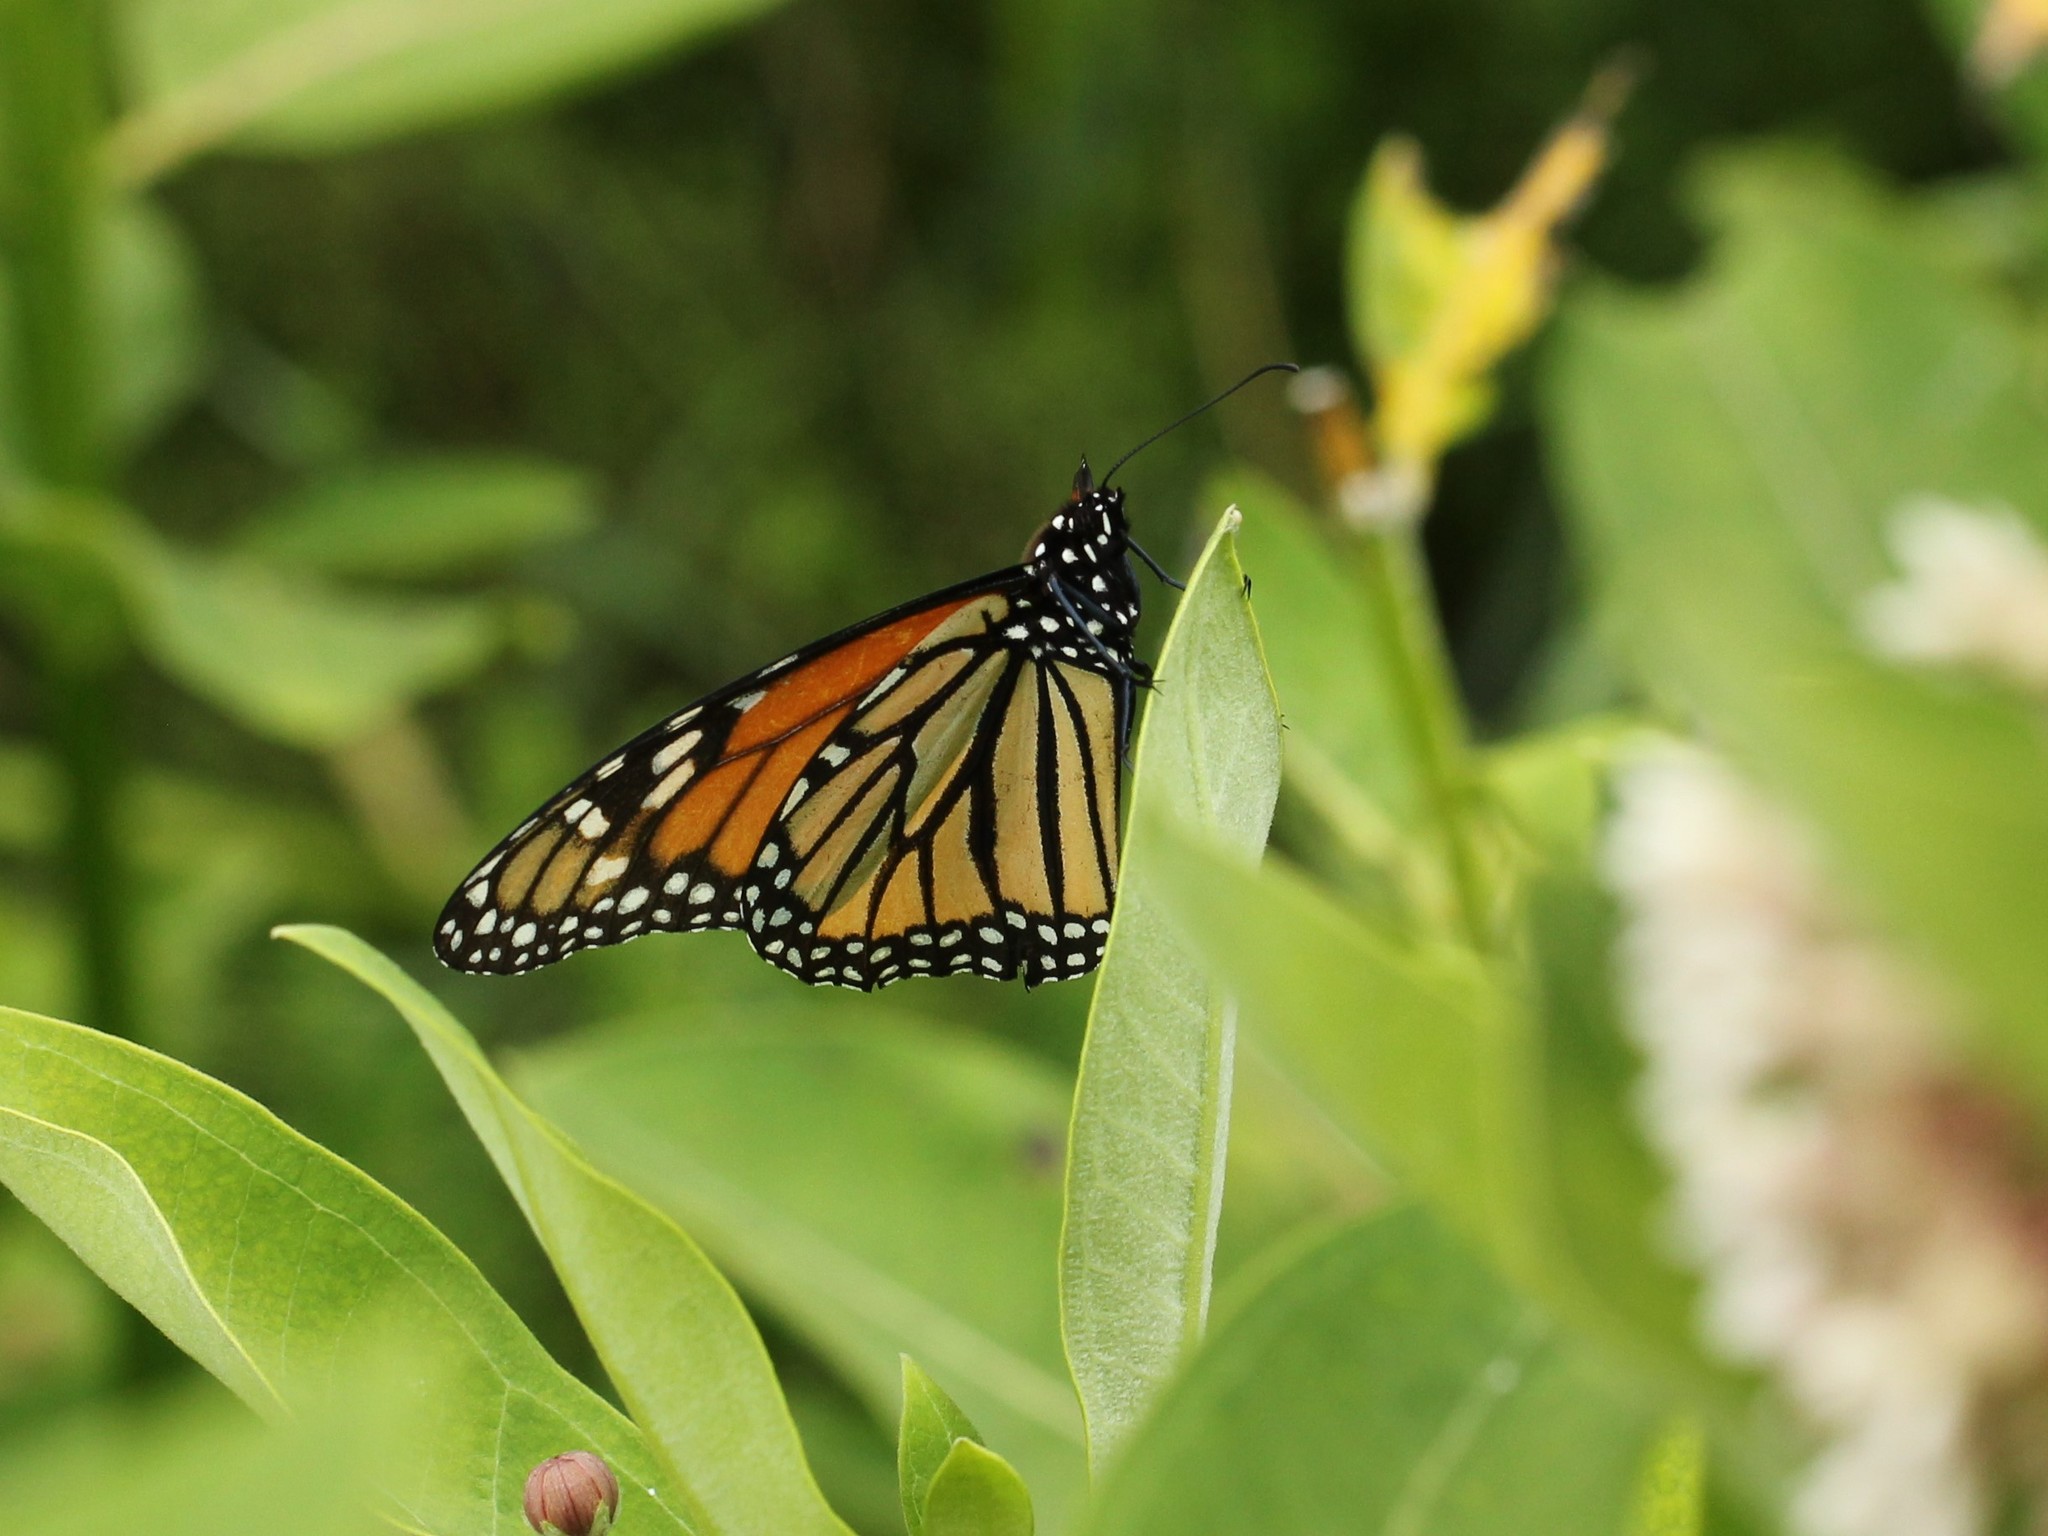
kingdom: Animalia
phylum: Arthropoda
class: Insecta
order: Lepidoptera
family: Nymphalidae
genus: Danaus
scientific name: Danaus plexippus
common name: Monarch
